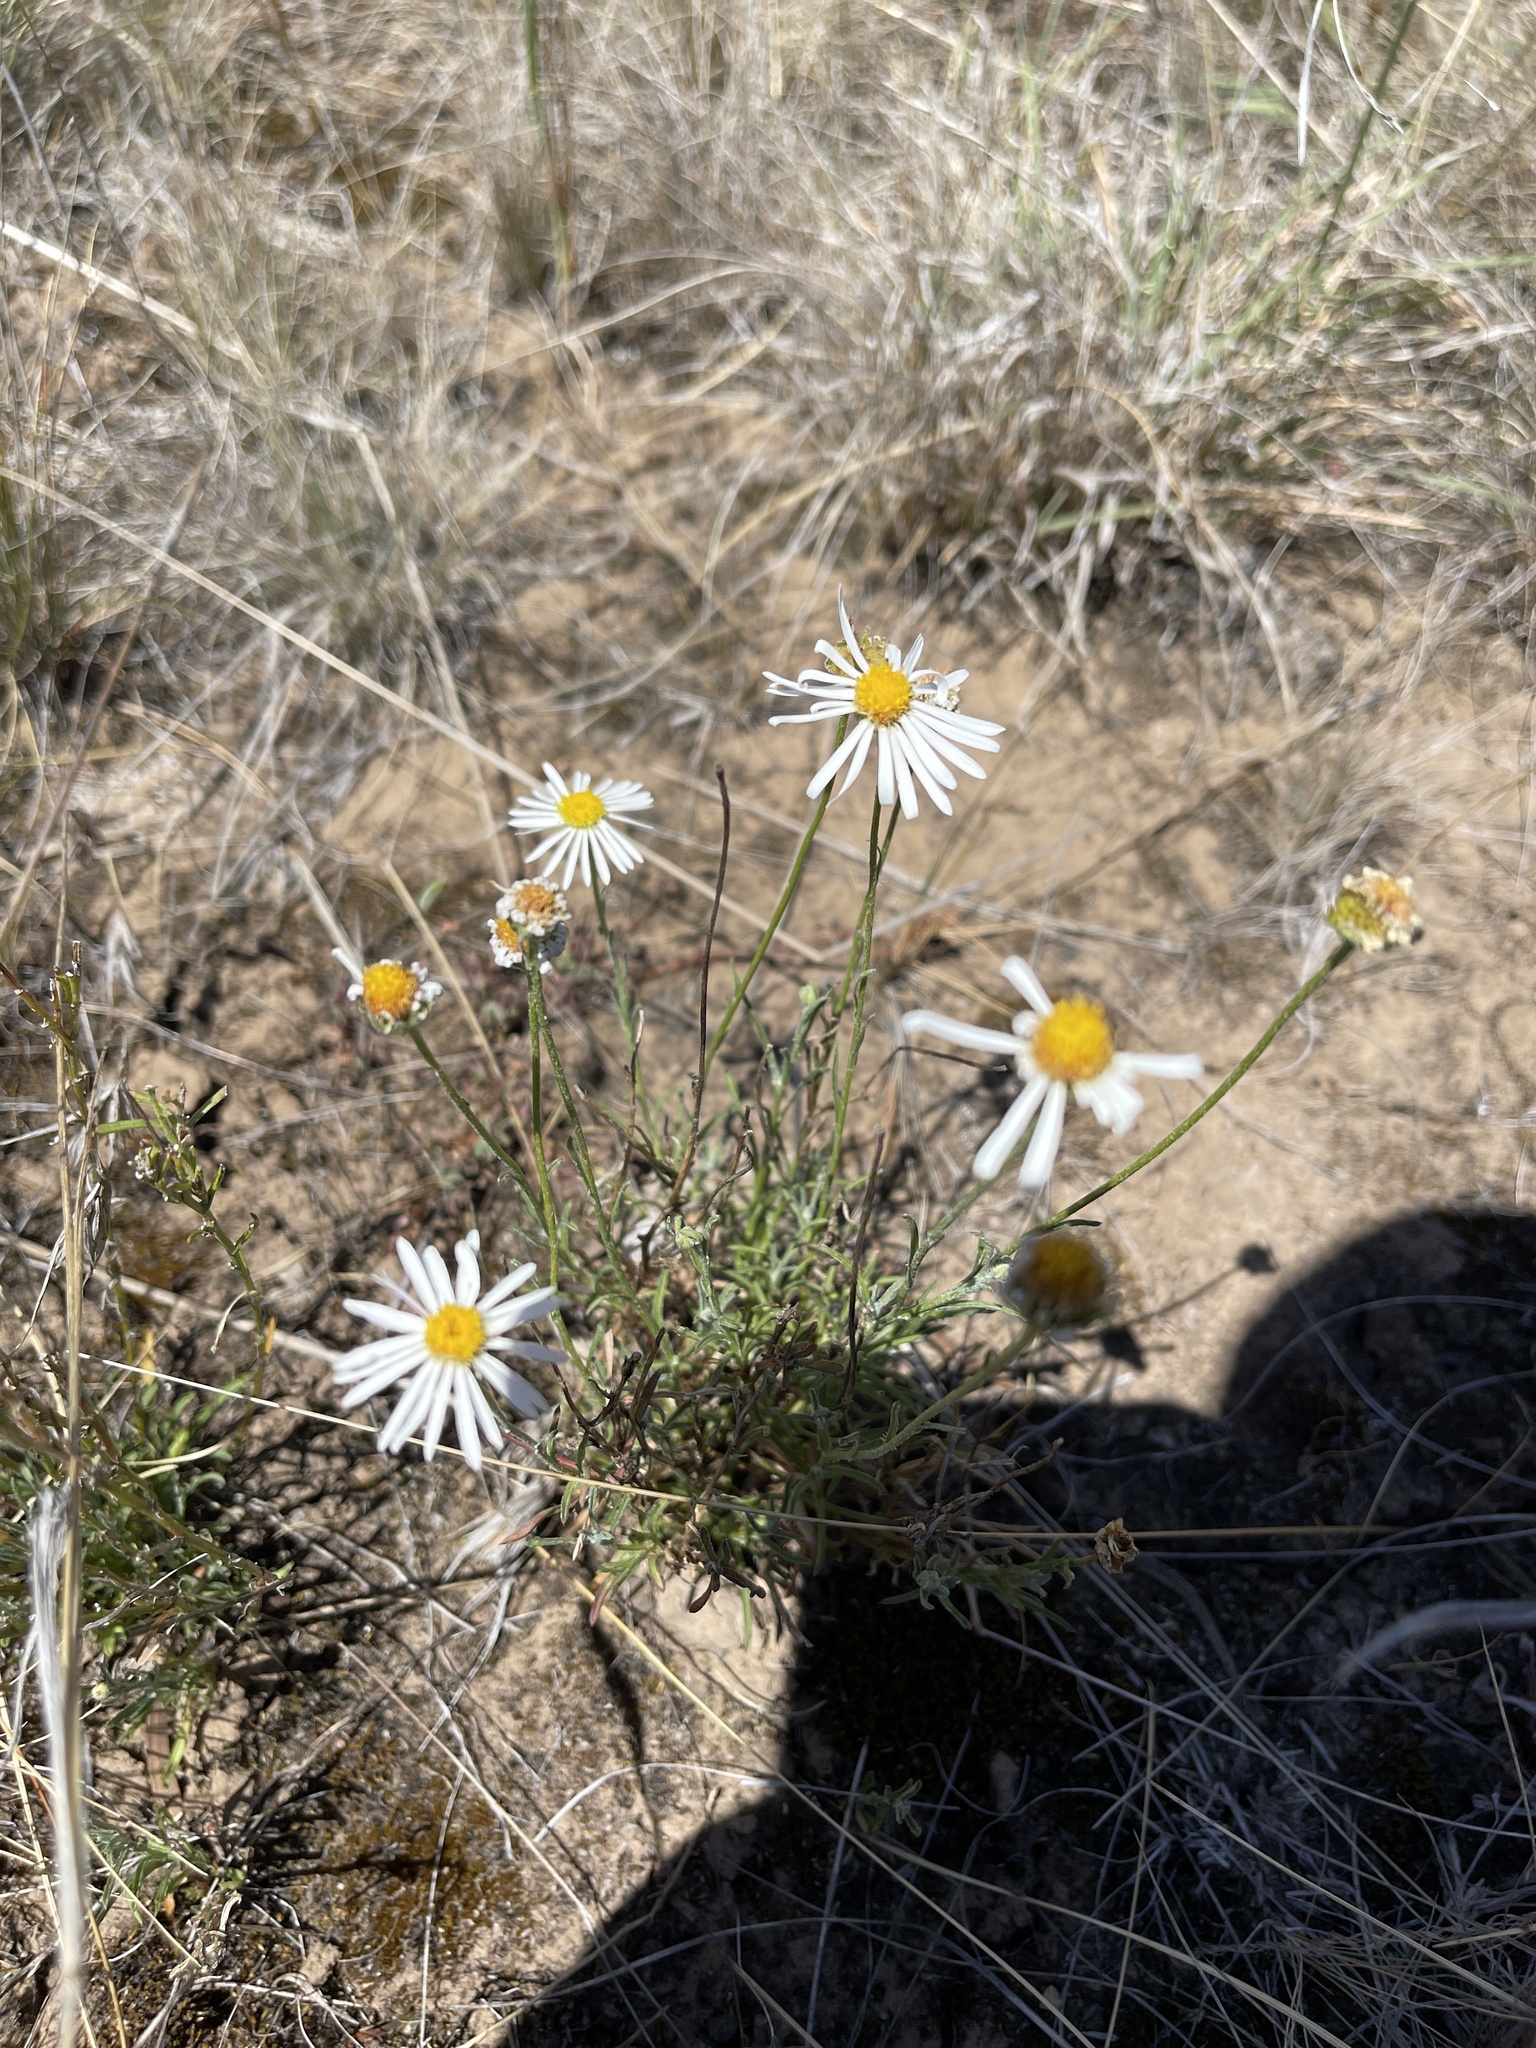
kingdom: Plantae
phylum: Tracheophyta
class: Magnoliopsida
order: Asterales
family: Asteraceae
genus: Vittadinia
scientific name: Vittadinia dentata
